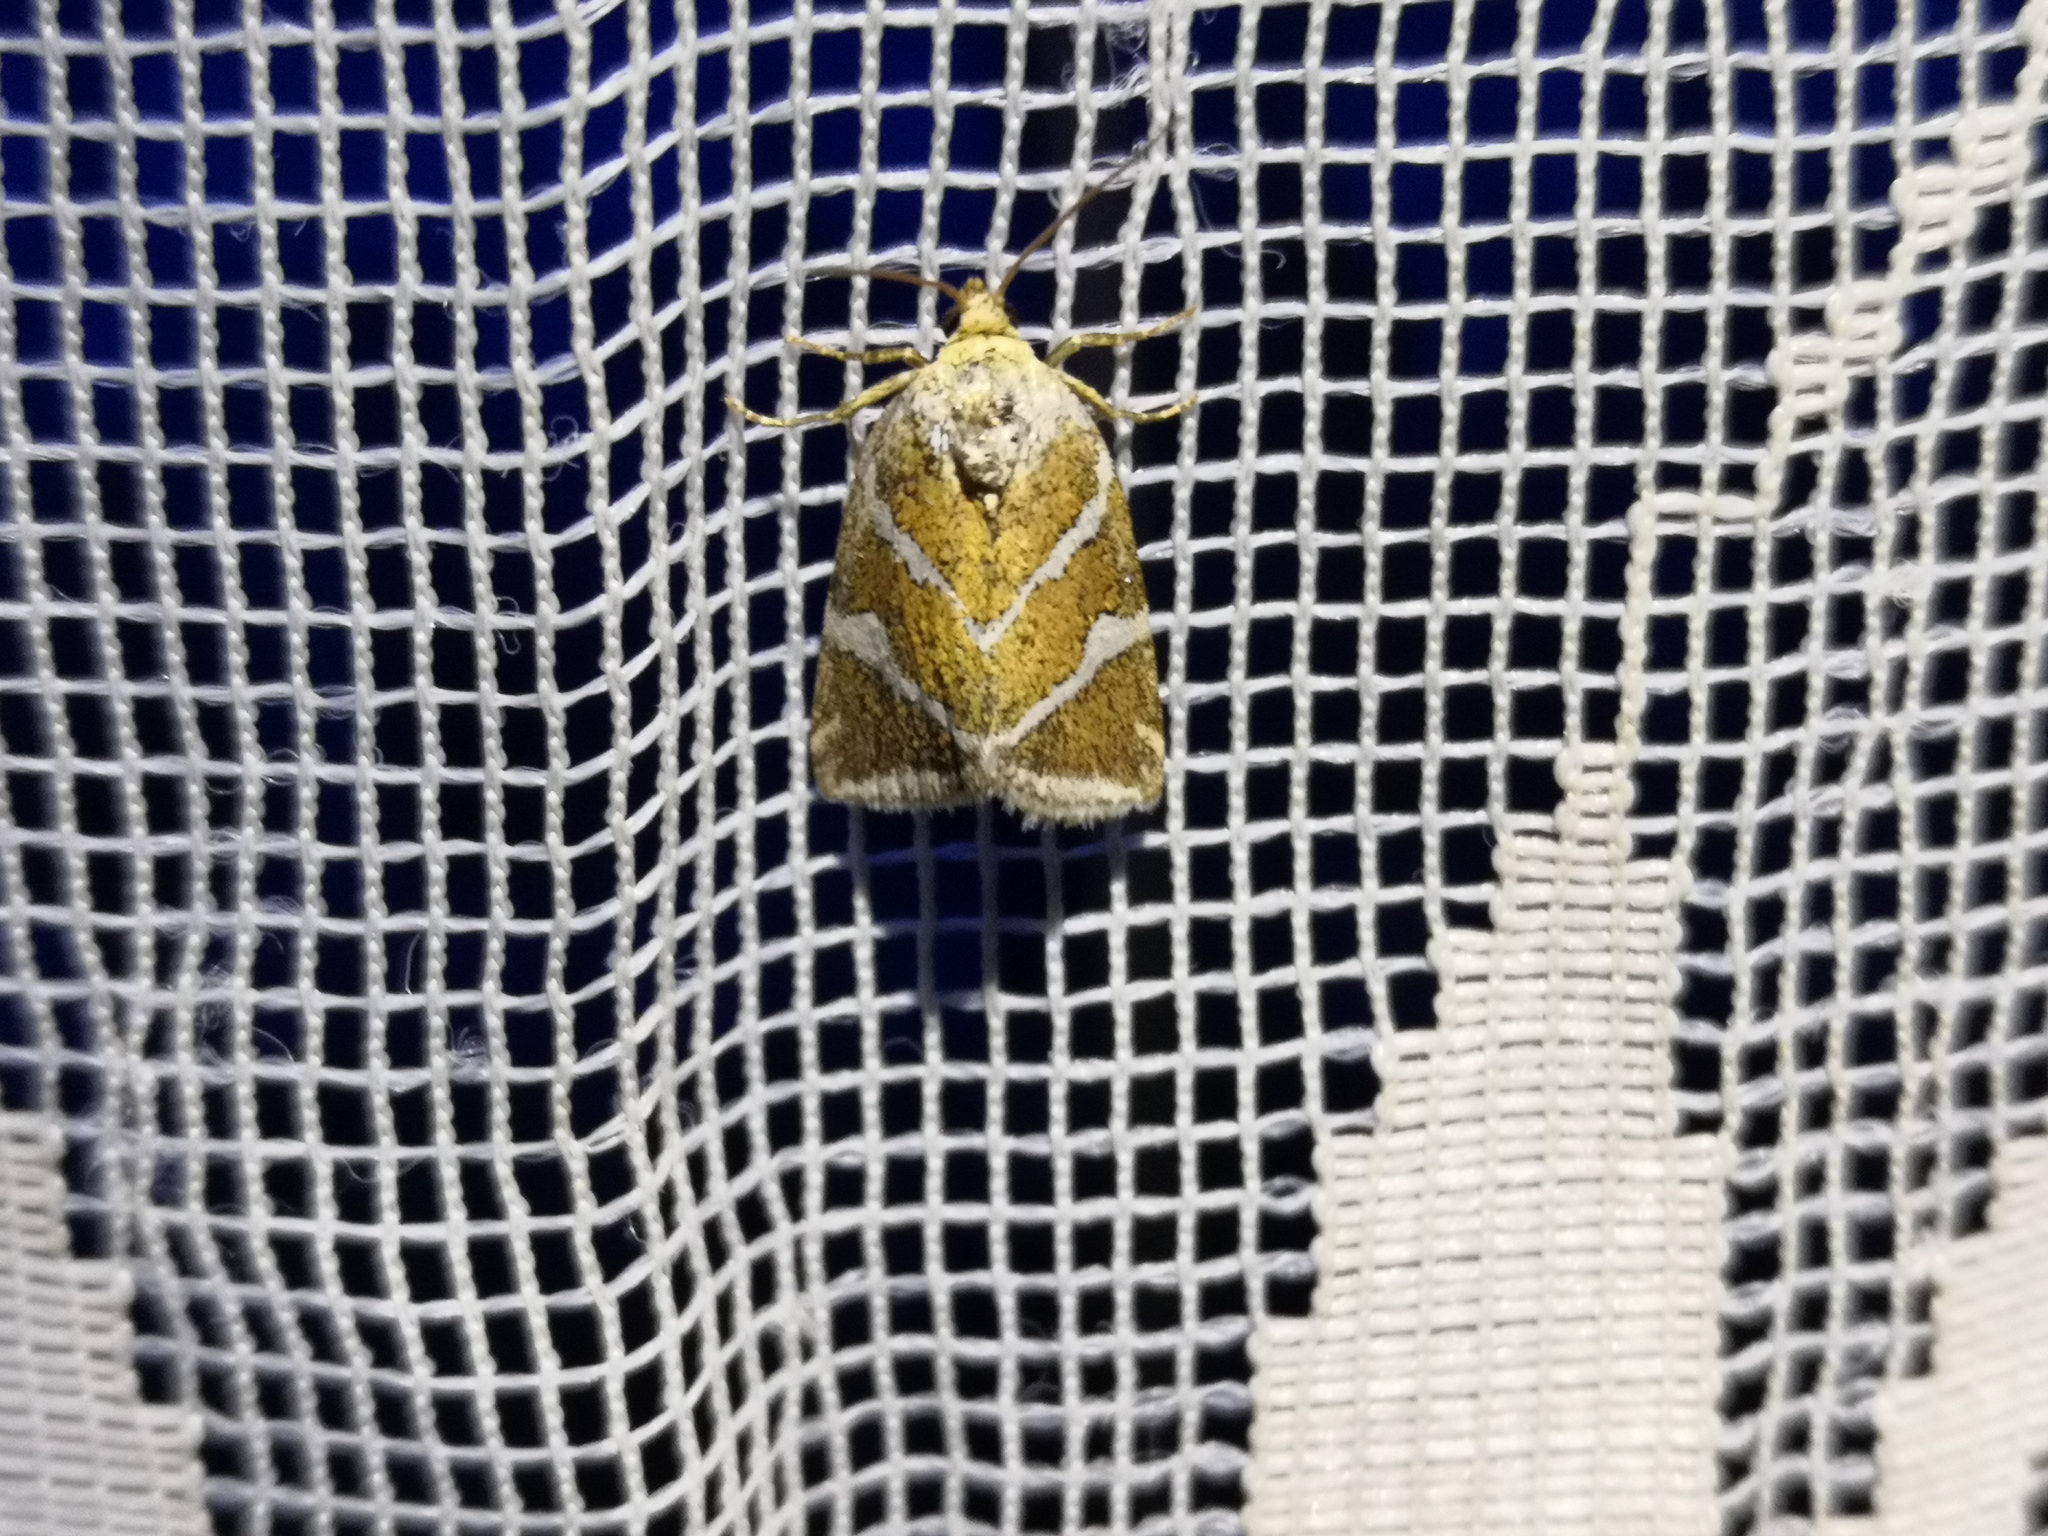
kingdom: Animalia
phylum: Arthropoda
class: Insecta
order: Lepidoptera
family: Noctuidae
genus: Deltote
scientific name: Deltote bankiana
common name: Silver barred
